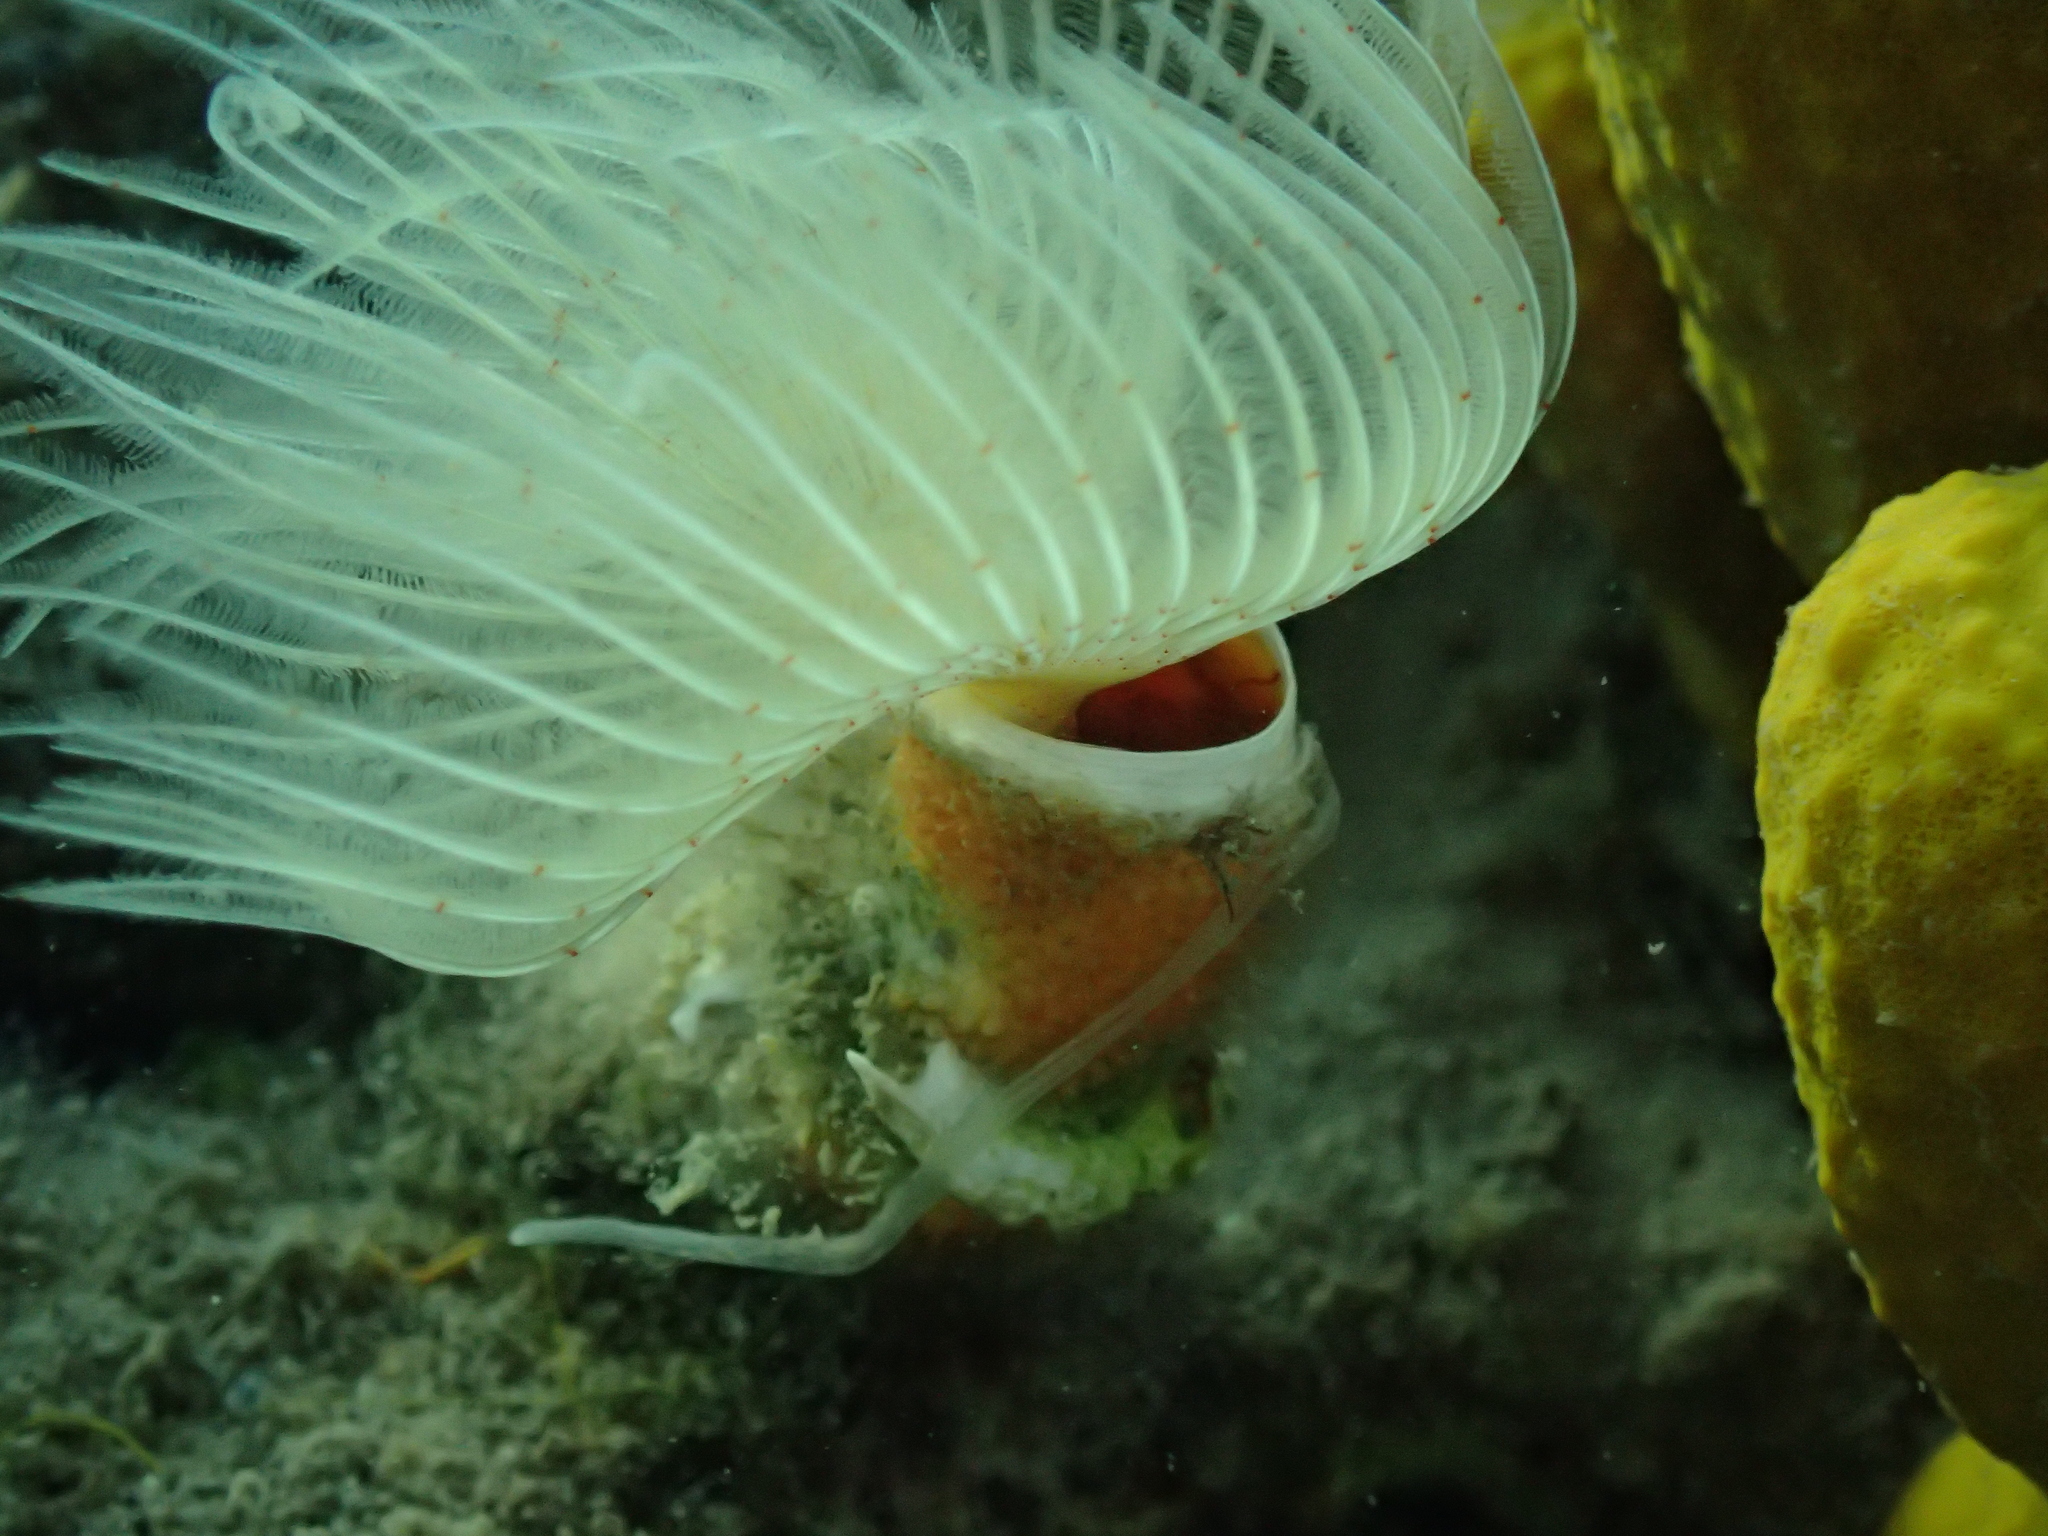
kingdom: Animalia
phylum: Annelida
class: Polychaeta
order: Sabellida
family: Serpulidae
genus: Protula
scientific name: Protula tubularia
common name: Red-spotted horseshoe
